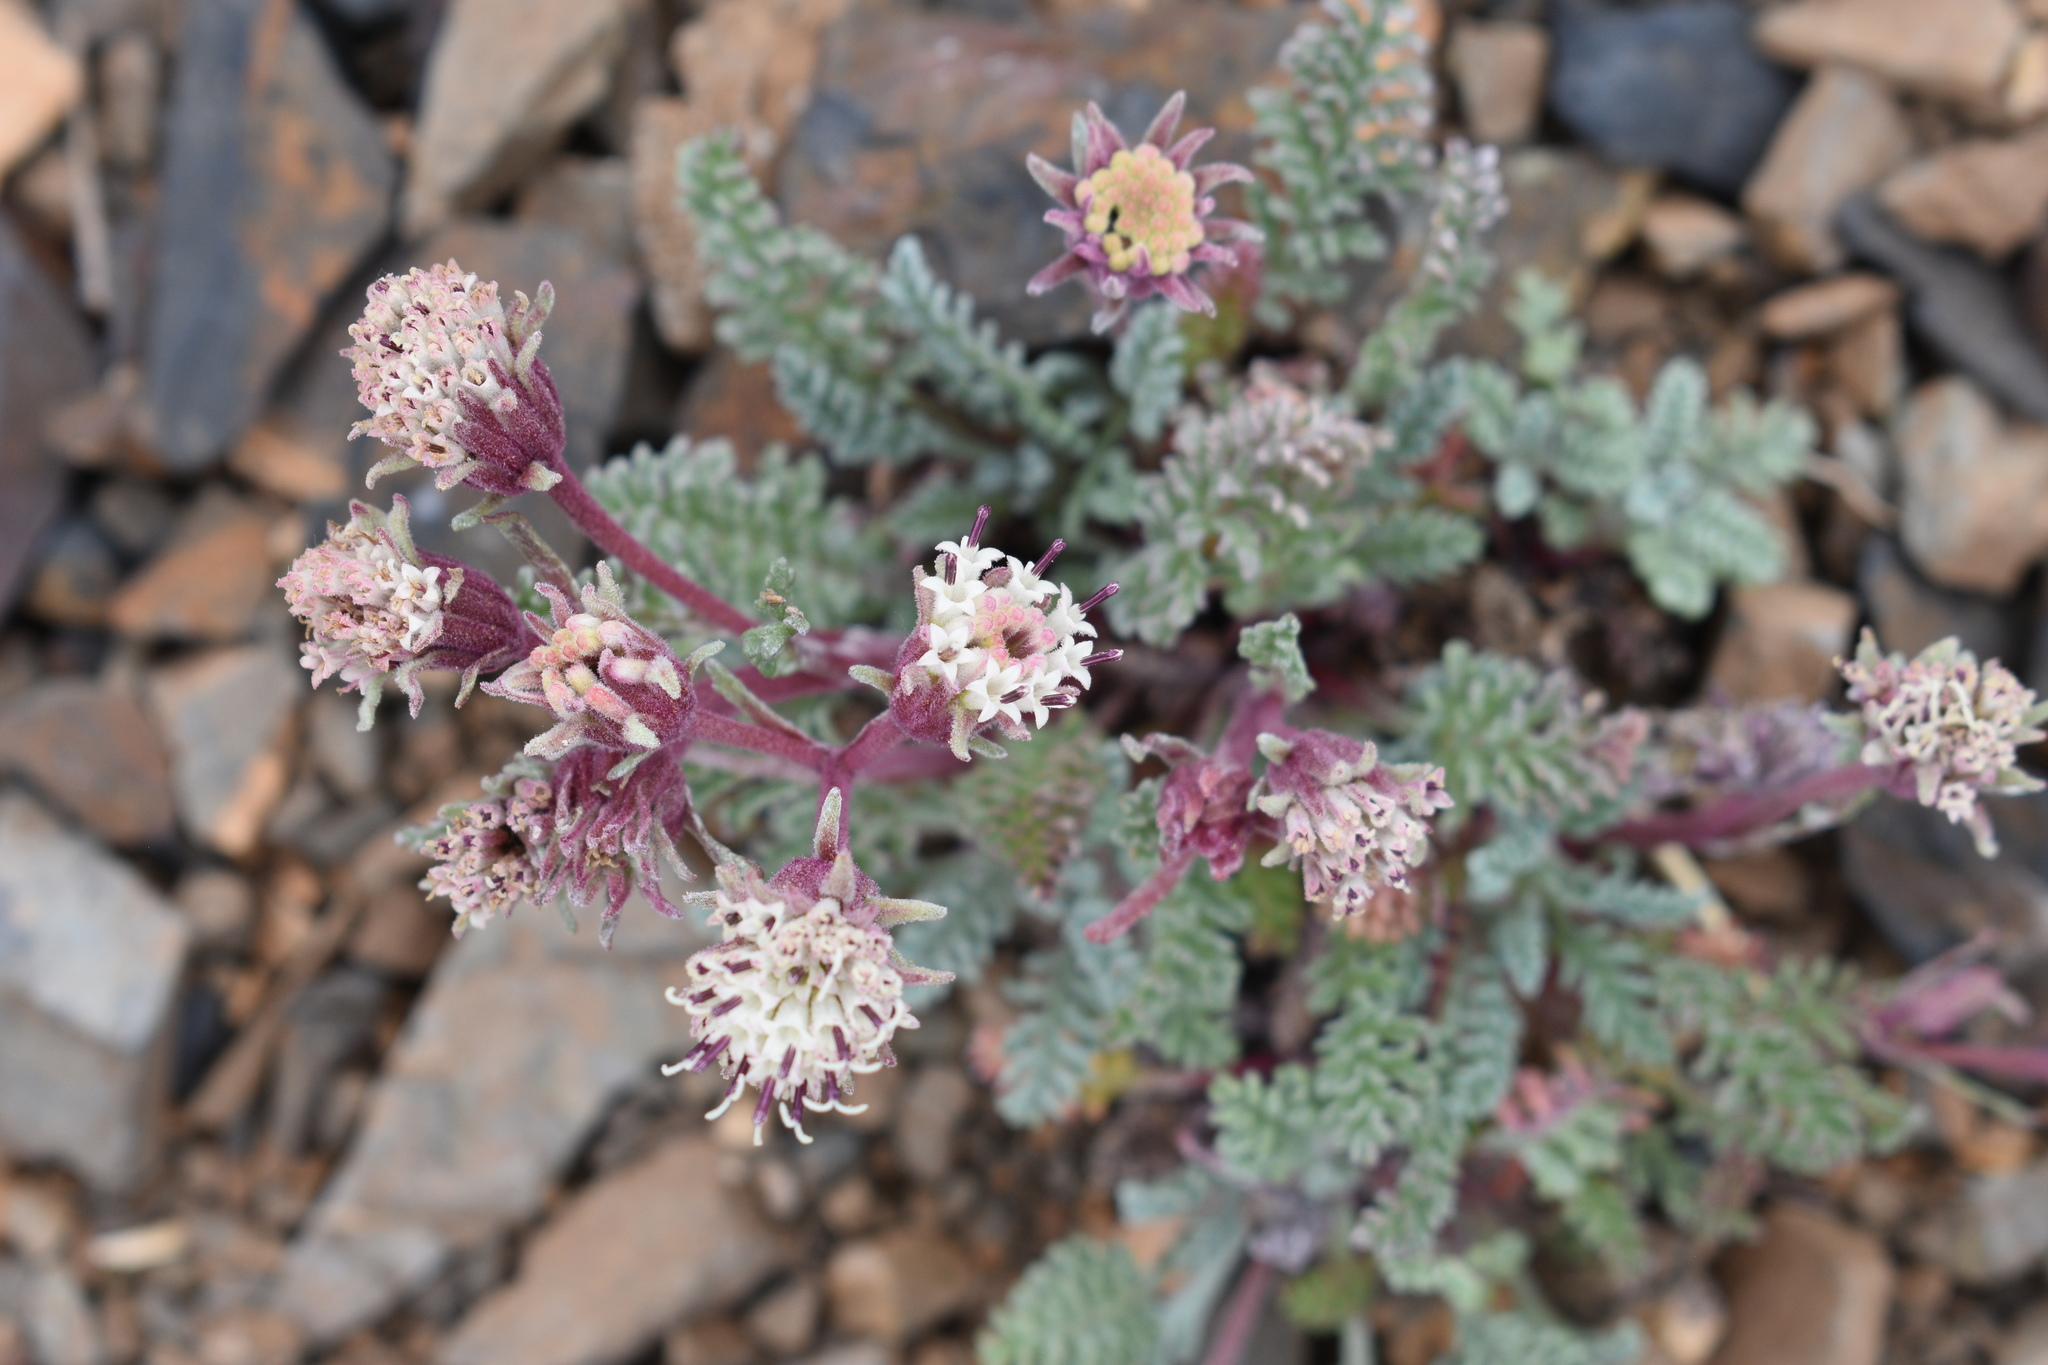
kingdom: Plantae
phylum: Tracheophyta
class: Magnoliopsida
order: Asterales
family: Asteraceae
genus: Chaenactis
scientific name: Chaenactis douglasii
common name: Hoary pincushion
